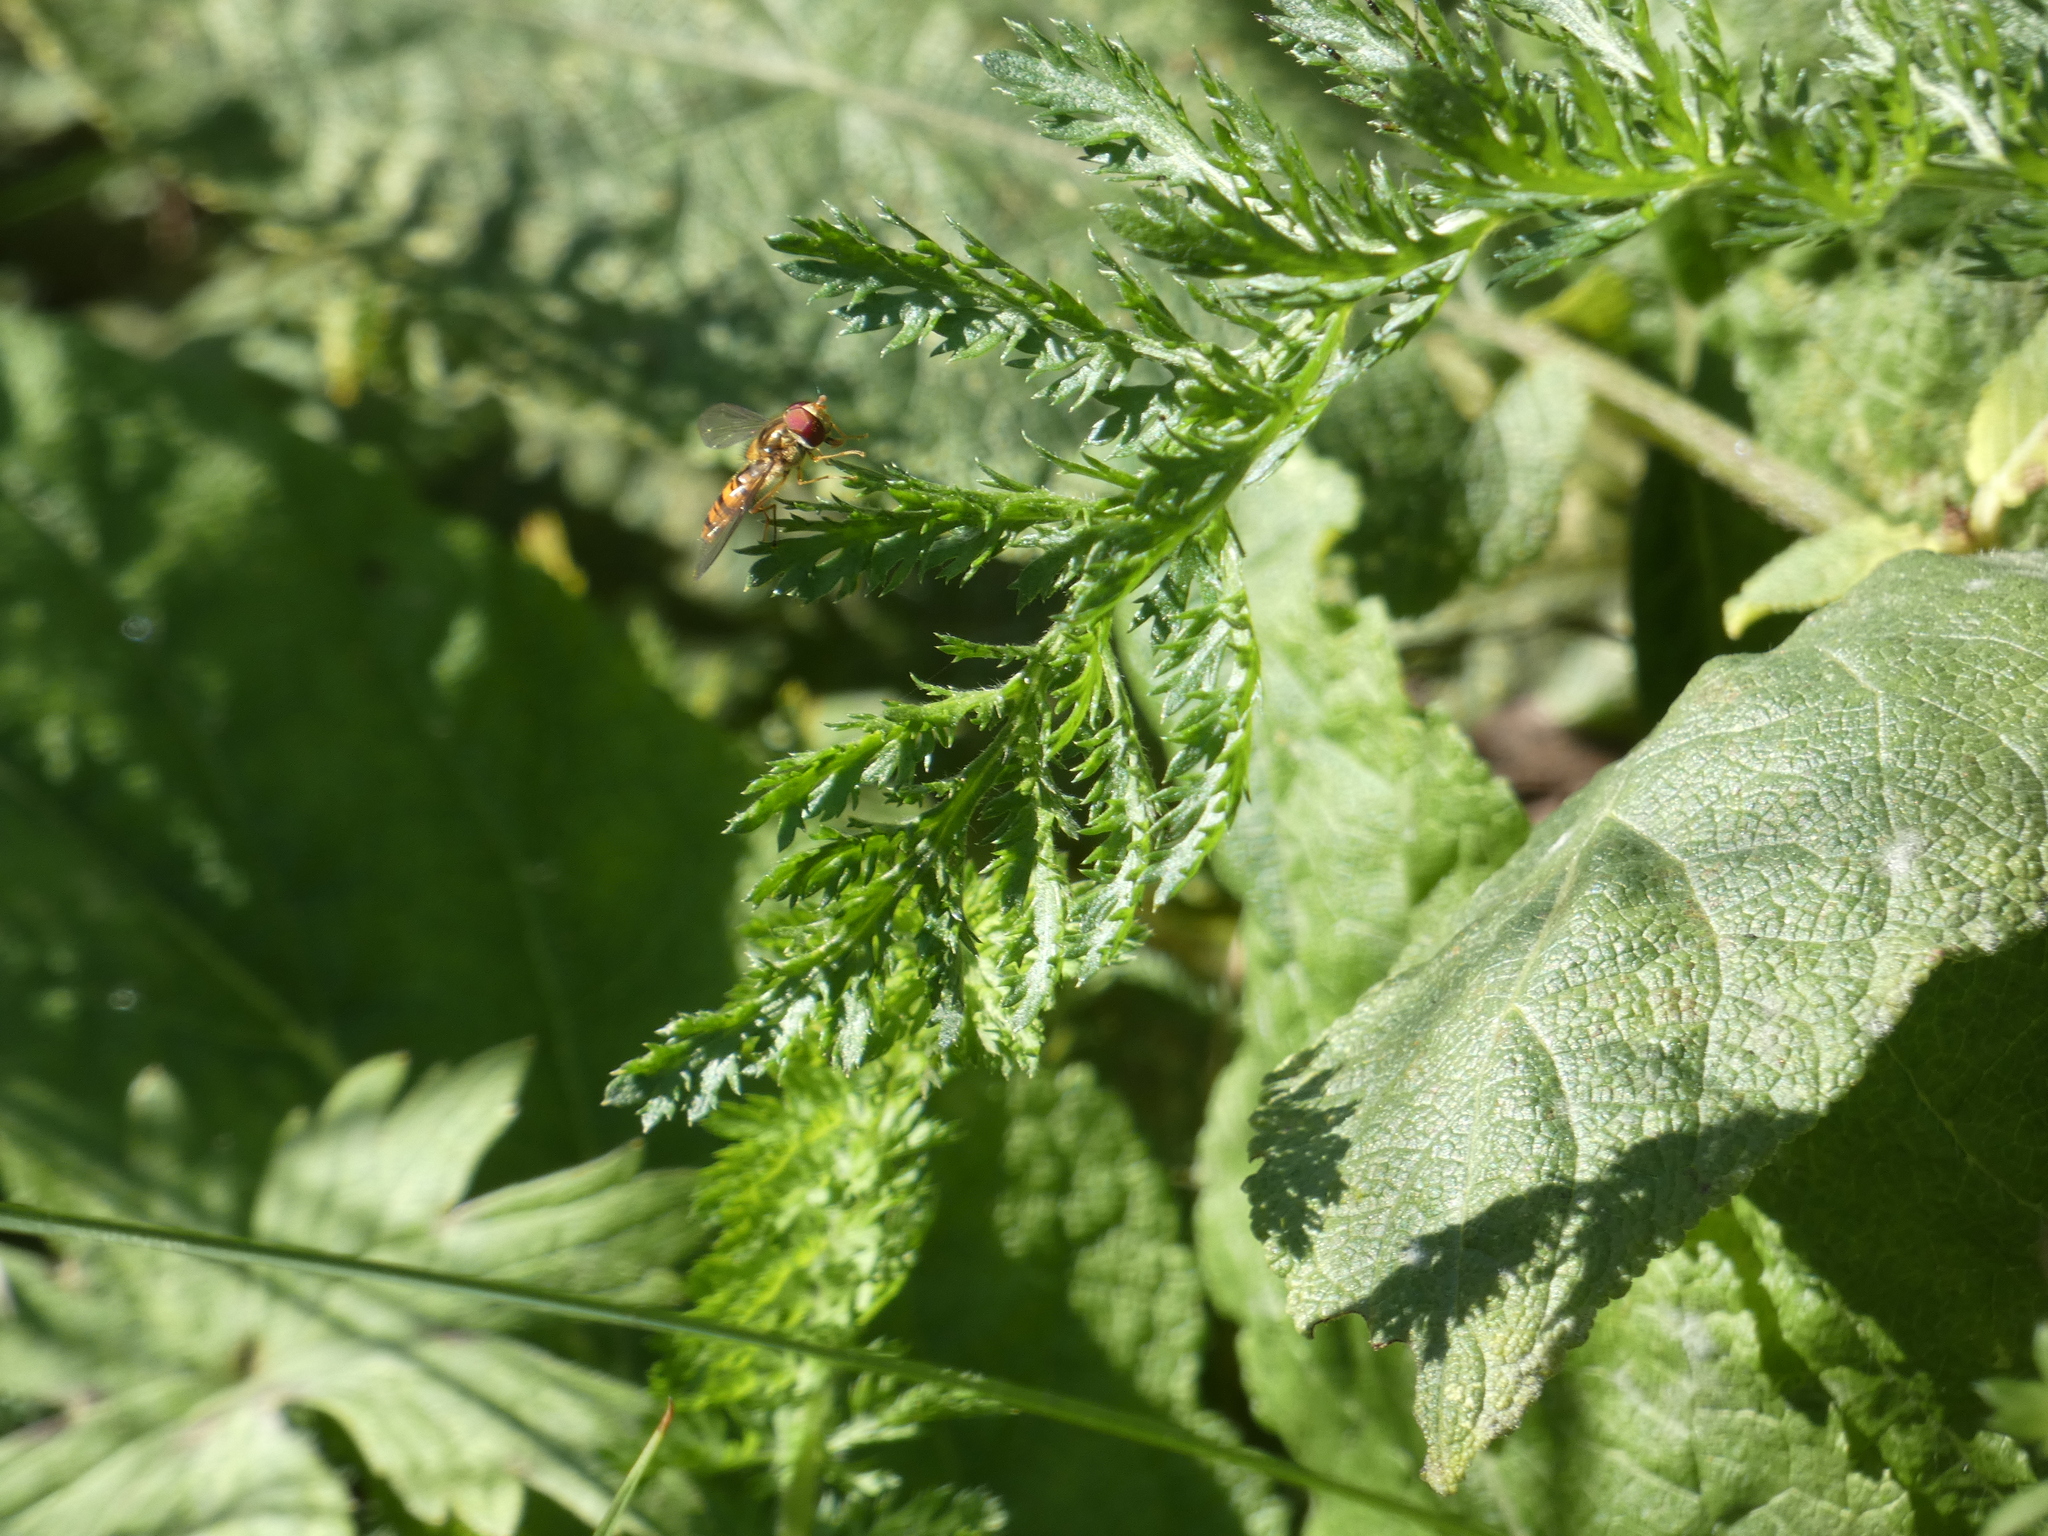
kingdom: Animalia
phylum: Arthropoda
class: Insecta
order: Diptera
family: Syrphidae
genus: Episyrphus
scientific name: Episyrphus balteatus
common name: Marmalade hoverfly
